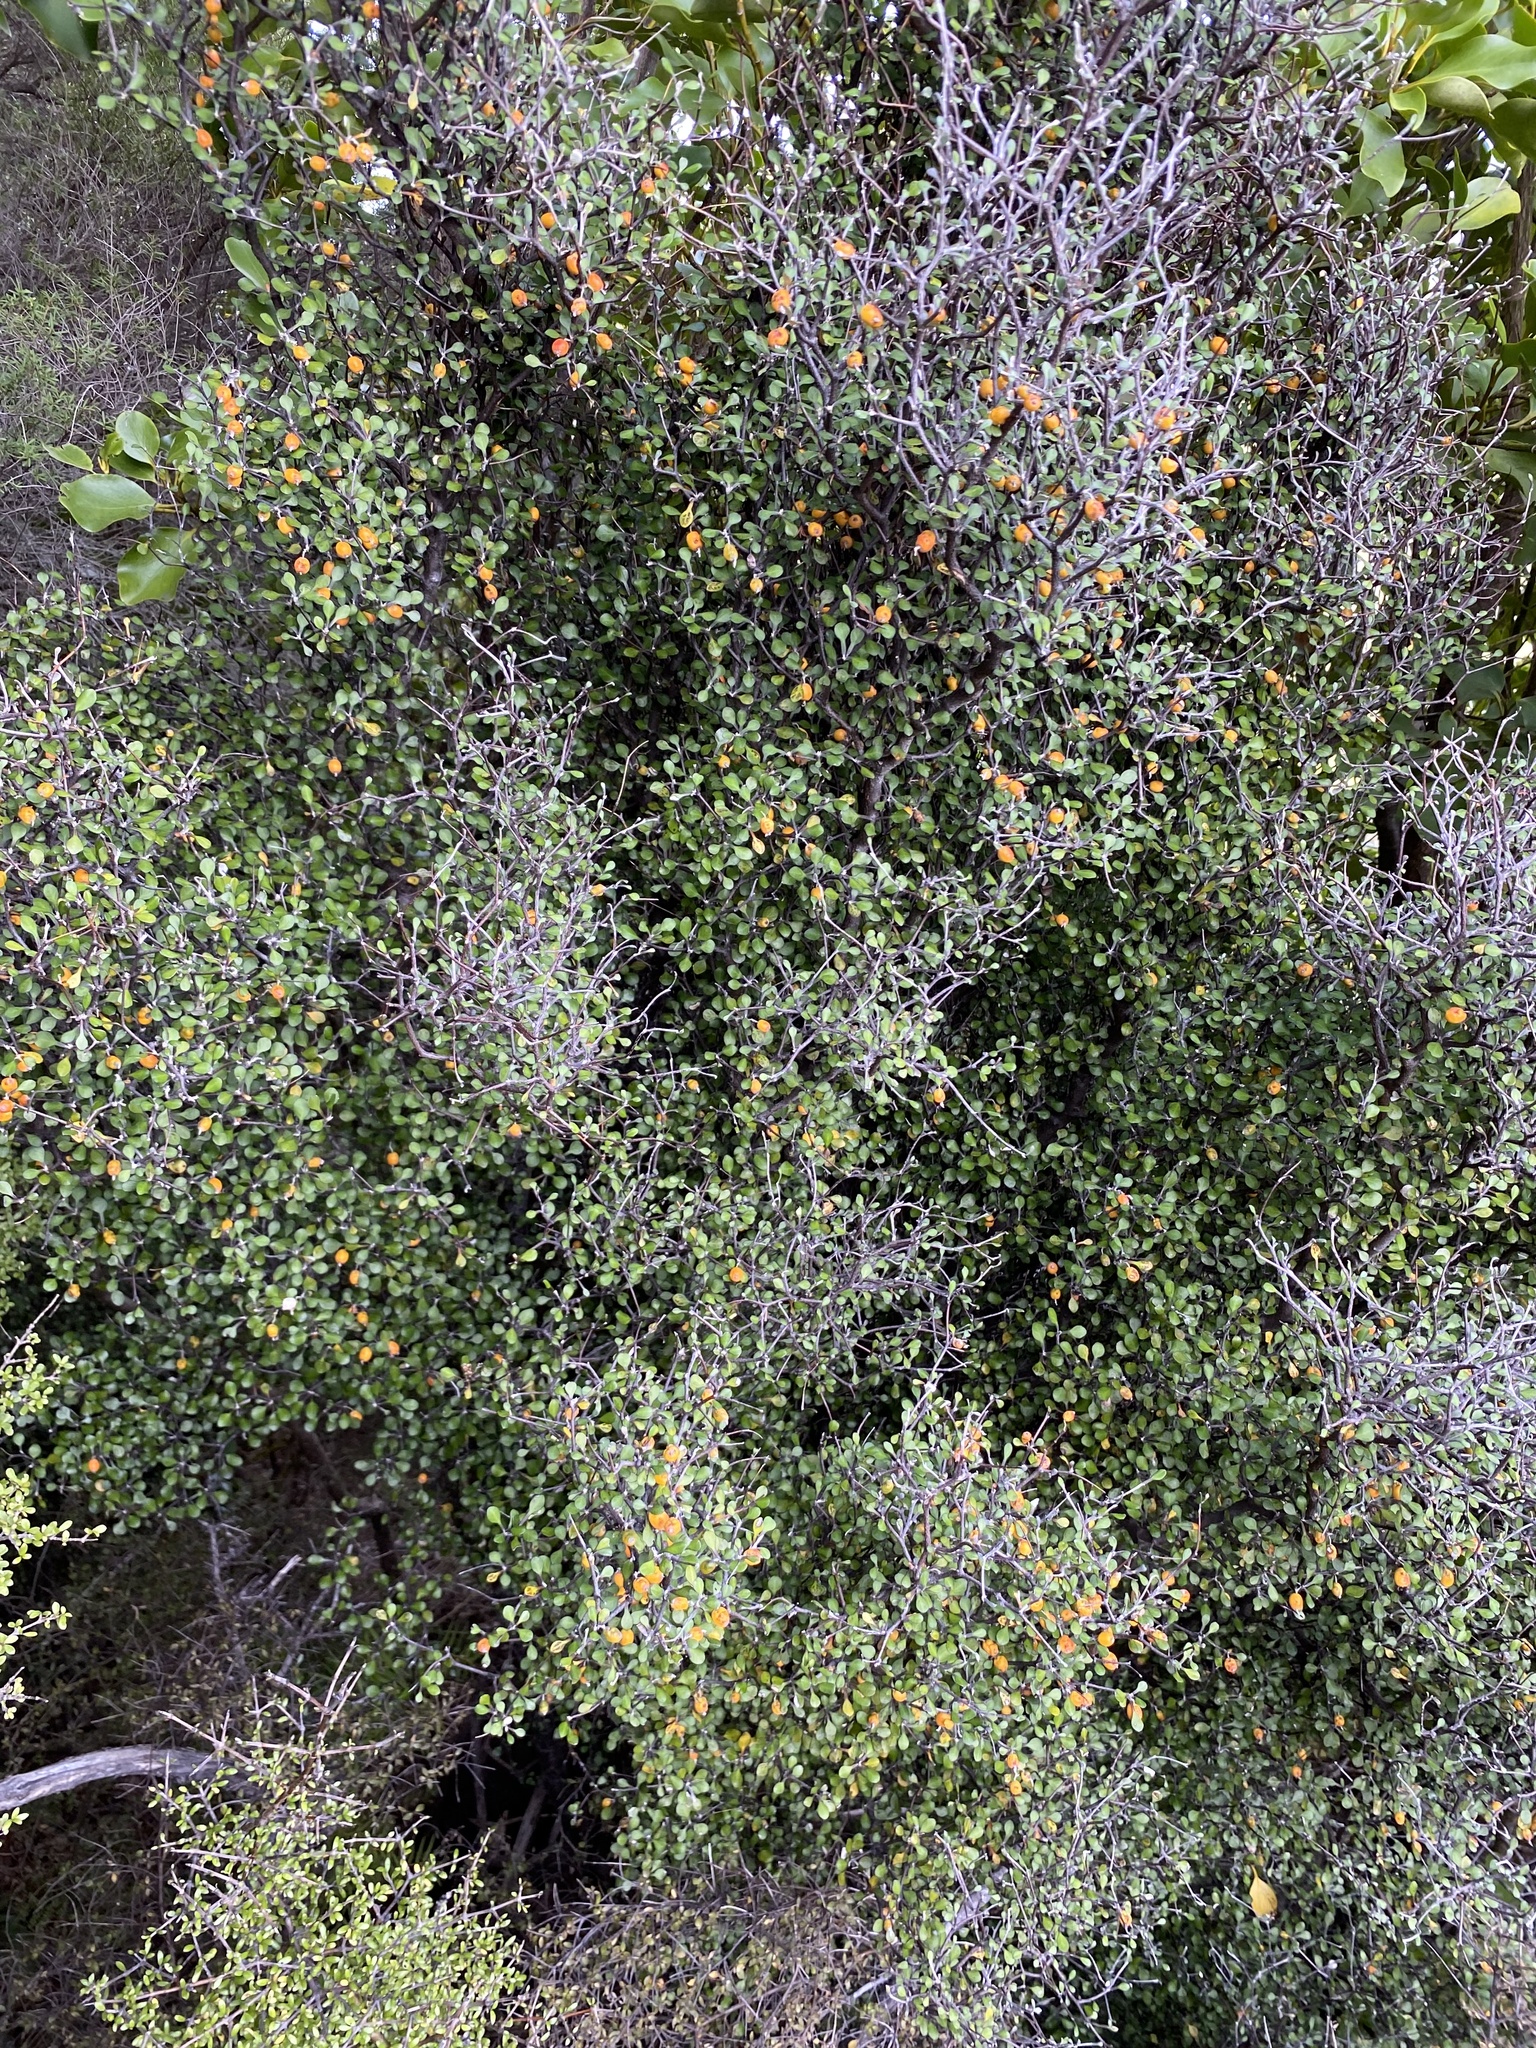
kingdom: Plantae
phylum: Tracheophyta
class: Magnoliopsida
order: Asterales
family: Argophyllaceae
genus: Corokia
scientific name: Corokia cotoneaster
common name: Wire nettingbush
